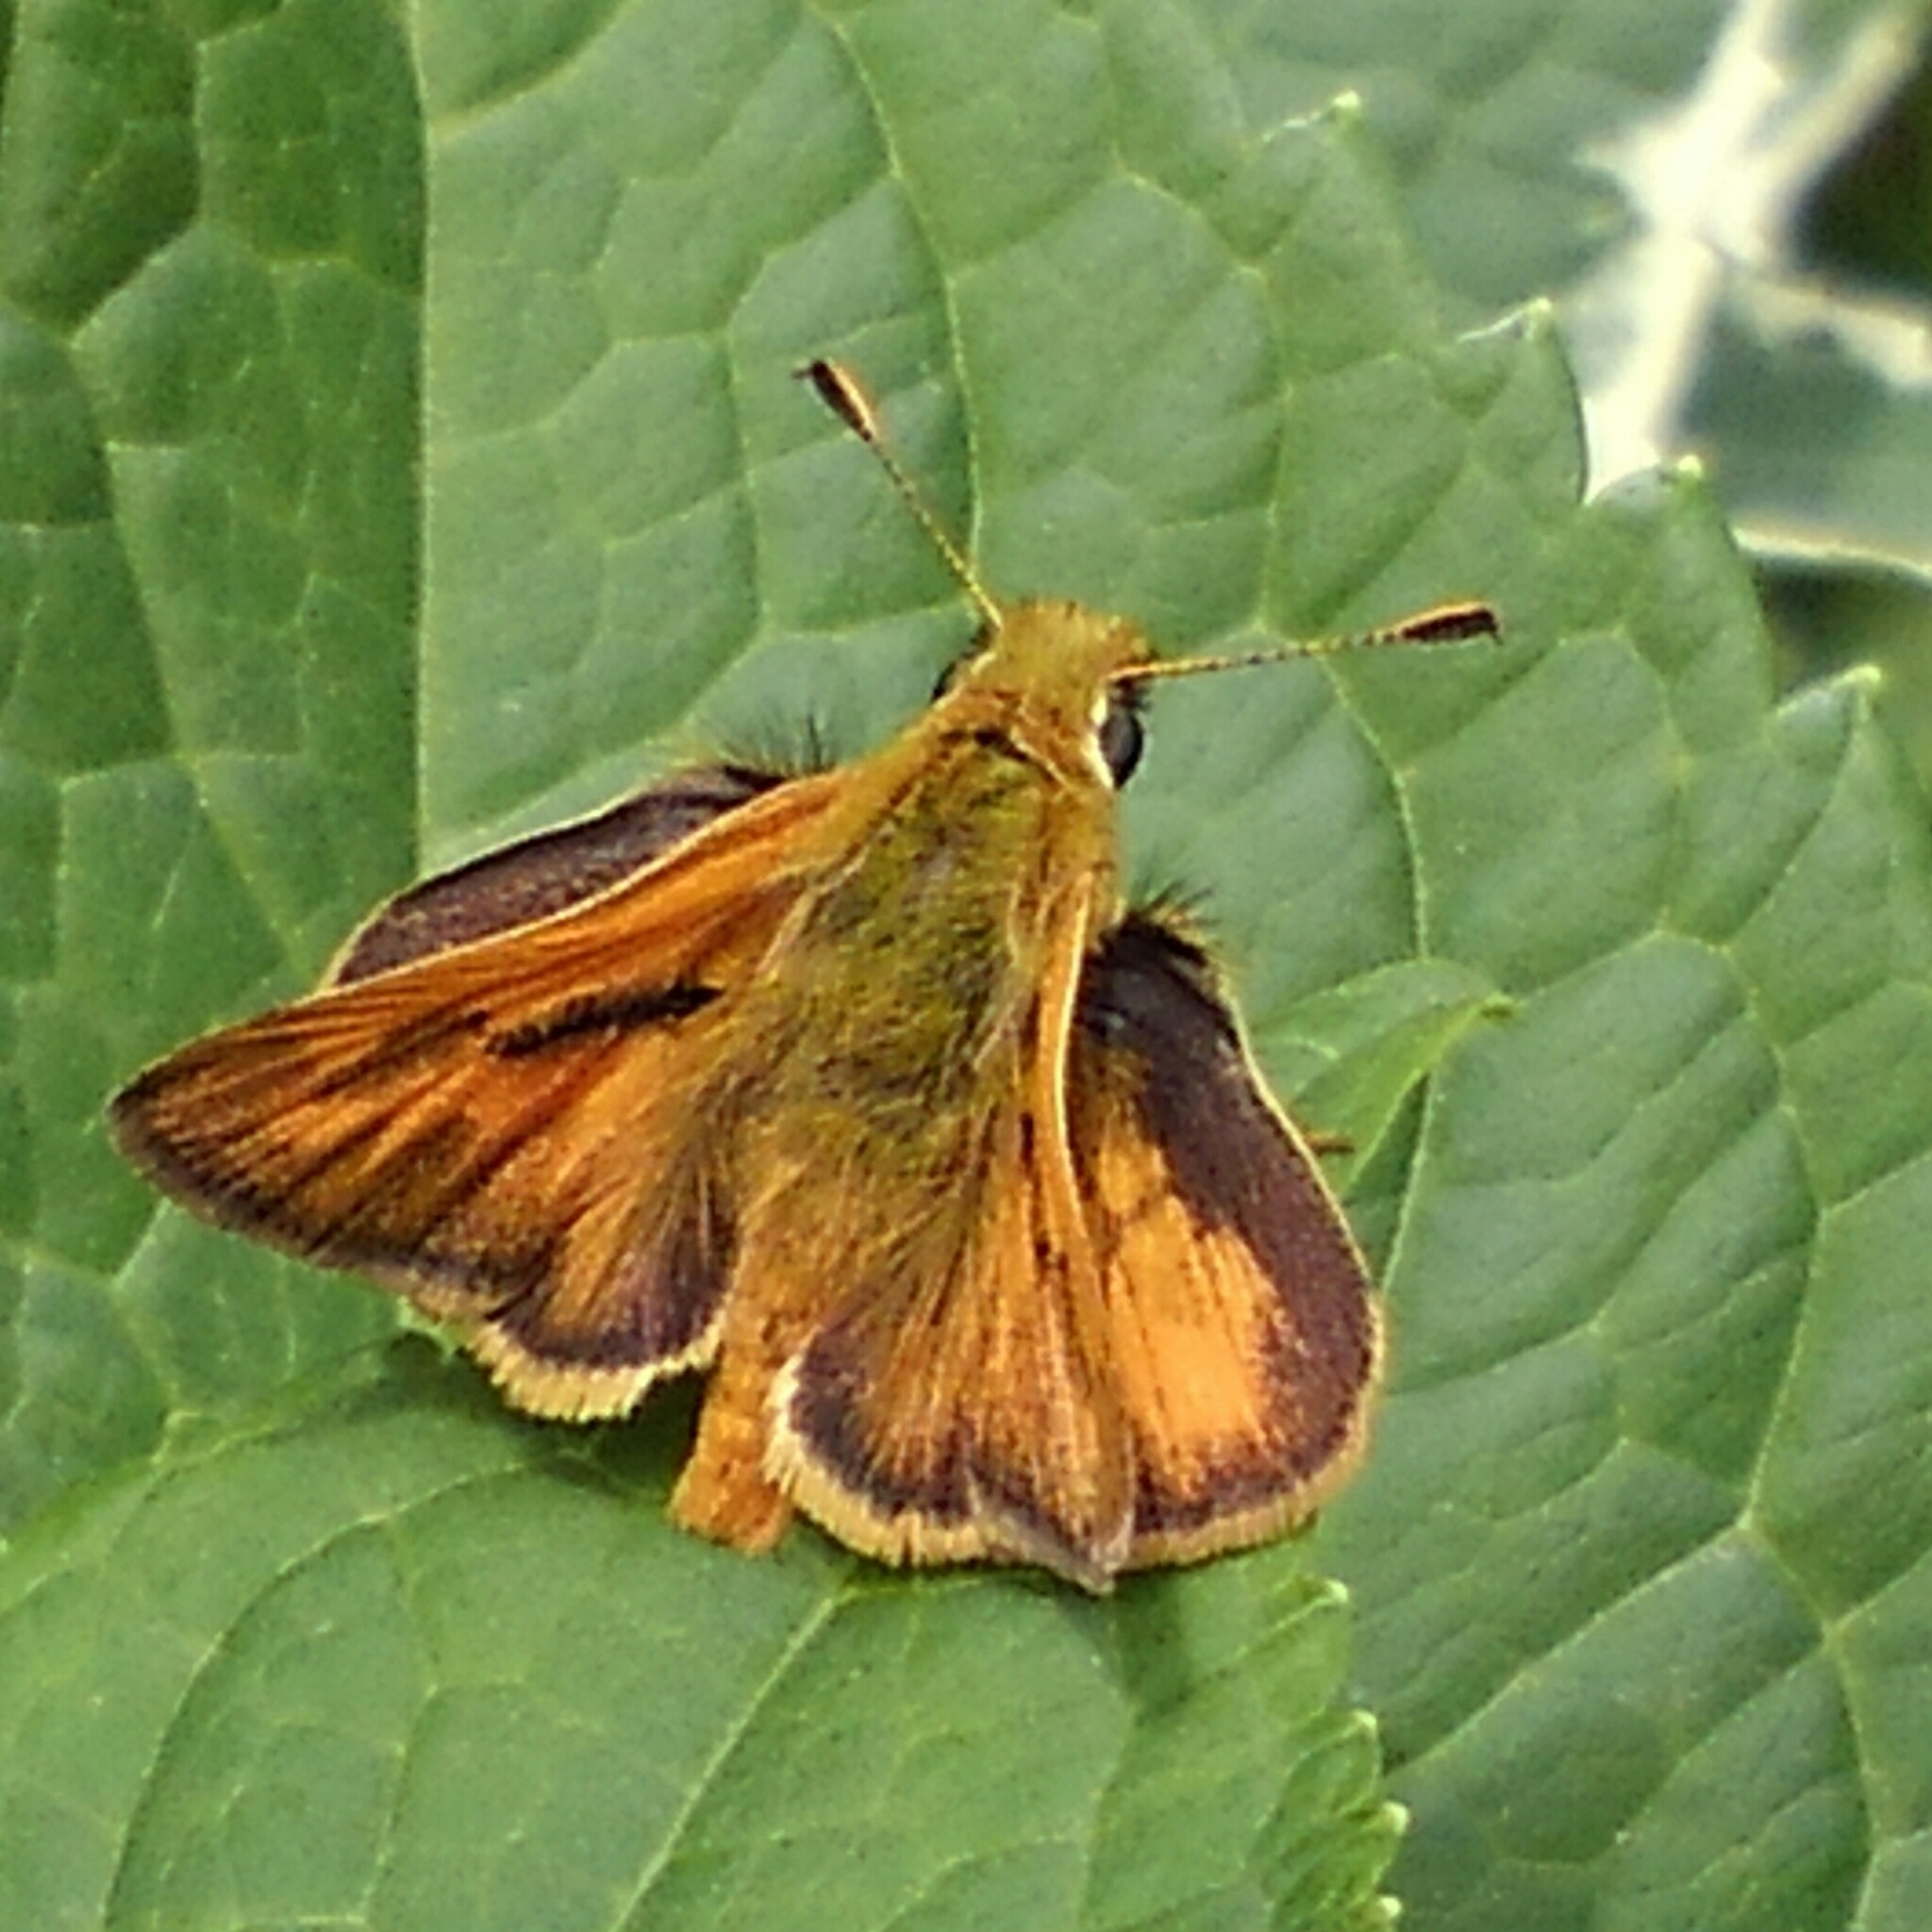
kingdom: Animalia
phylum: Arthropoda
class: Insecta
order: Lepidoptera
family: Hesperiidae
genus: Ochlodes
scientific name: Ochlodes sylvanoides
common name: Woodland skipper
